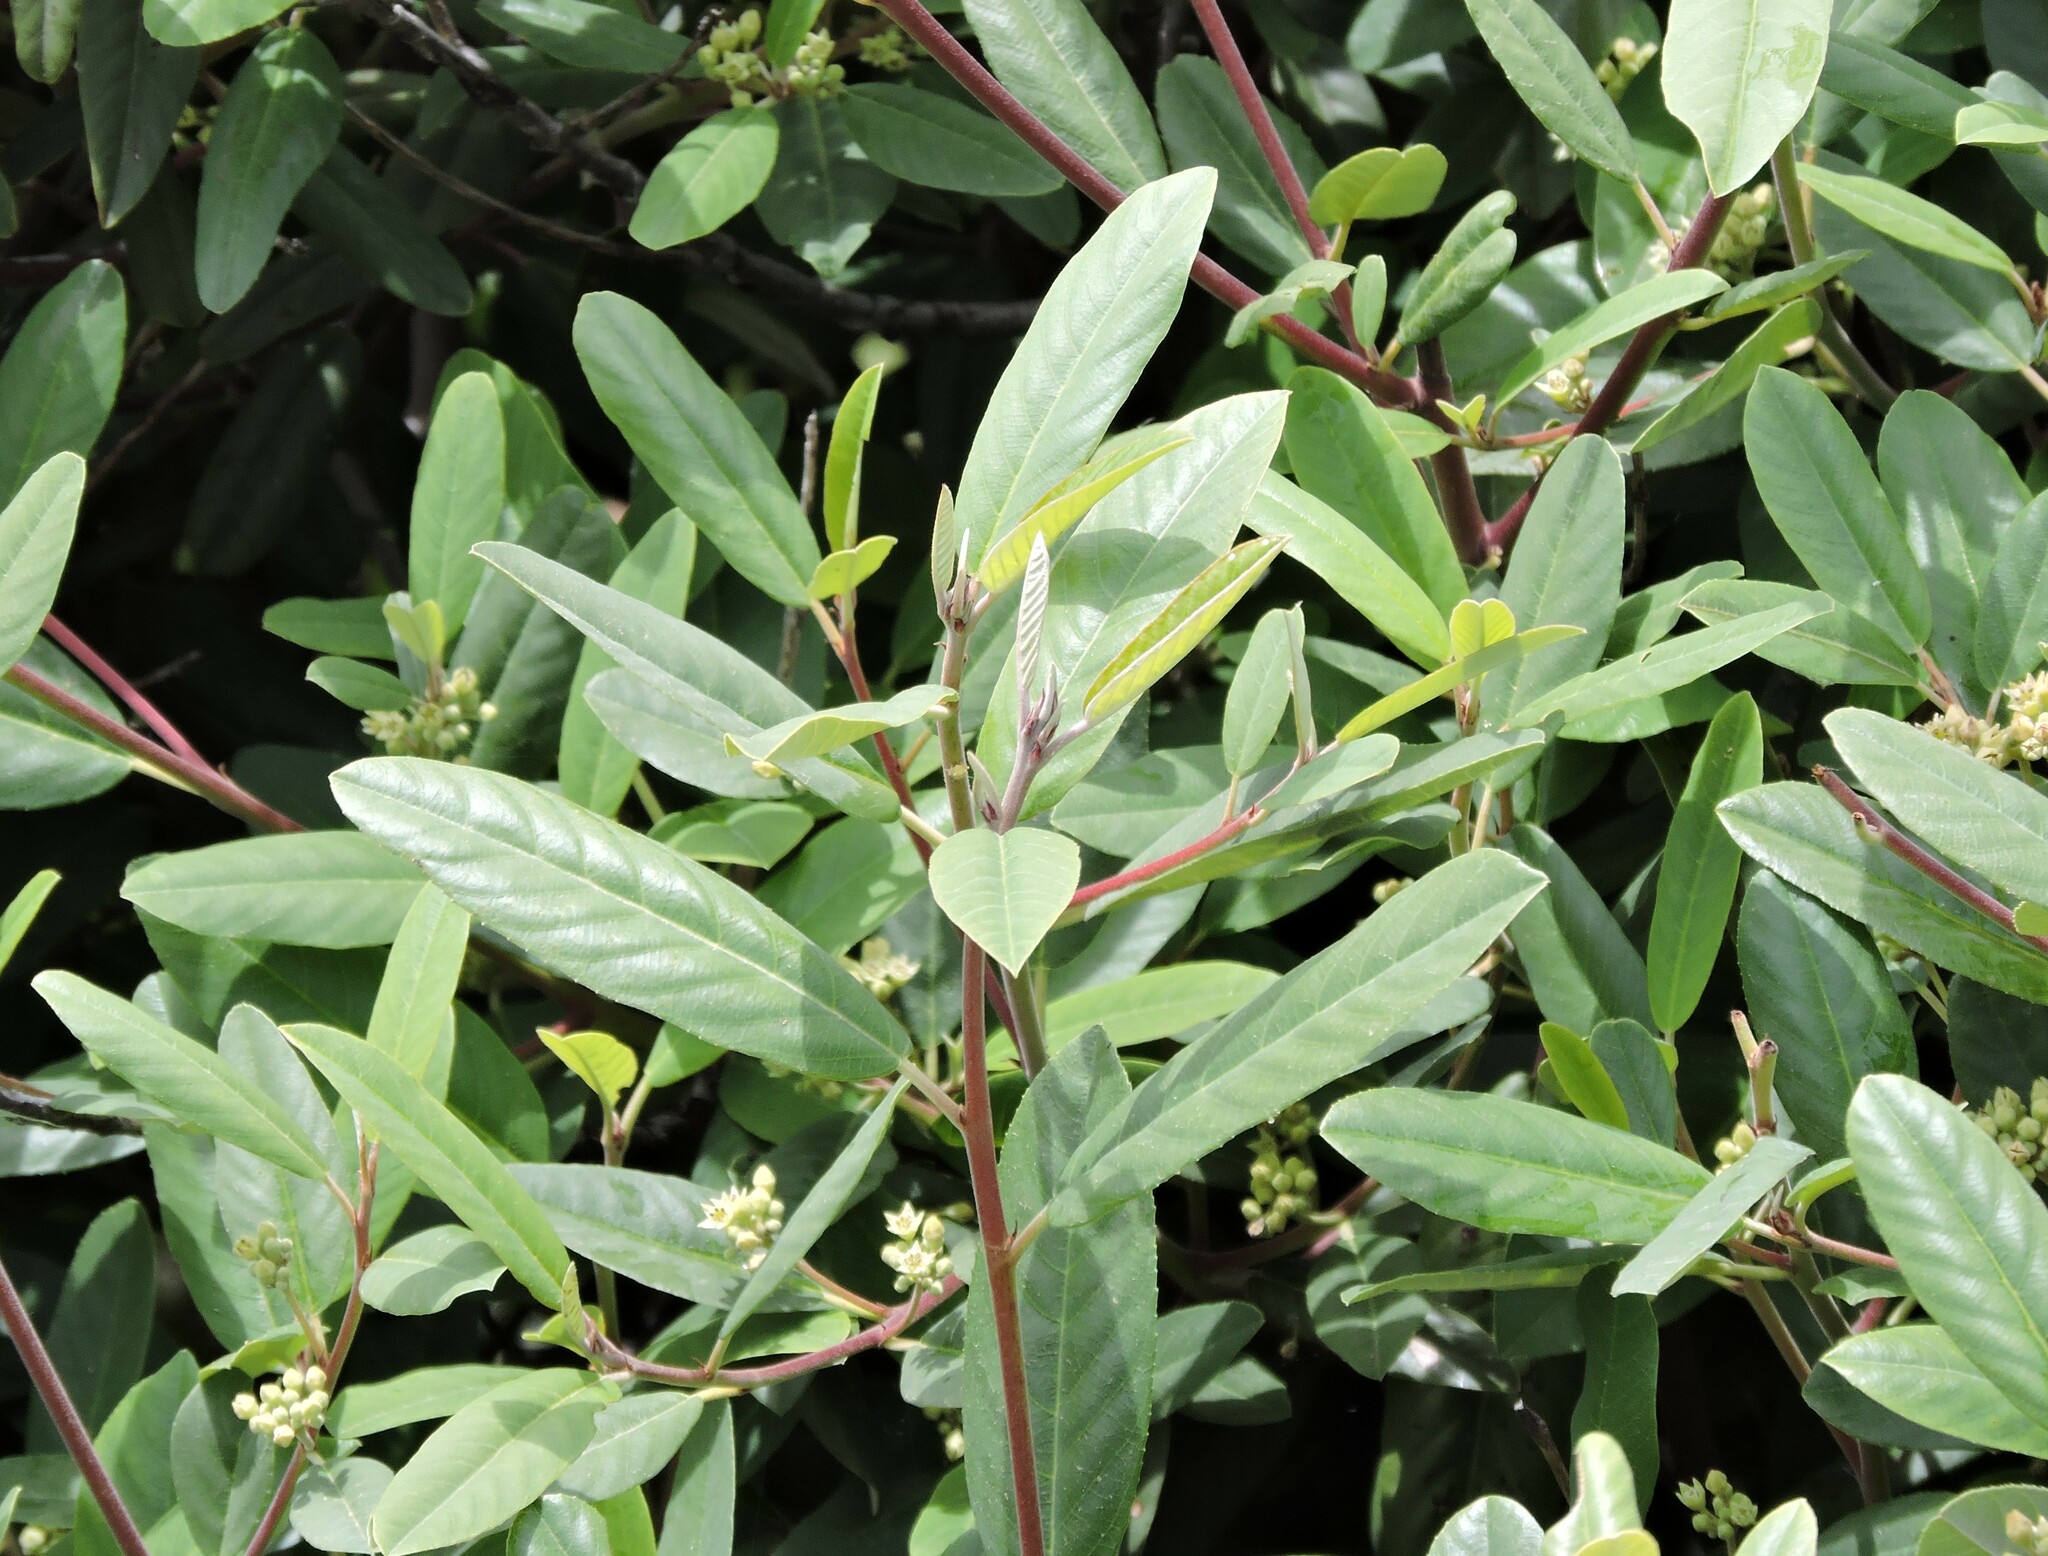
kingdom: Plantae
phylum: Tracheophyta
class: Magnoliopsida
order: Rosales
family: Rhamnaceae
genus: Frangula
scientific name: Frangula californica
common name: California buckthorn
